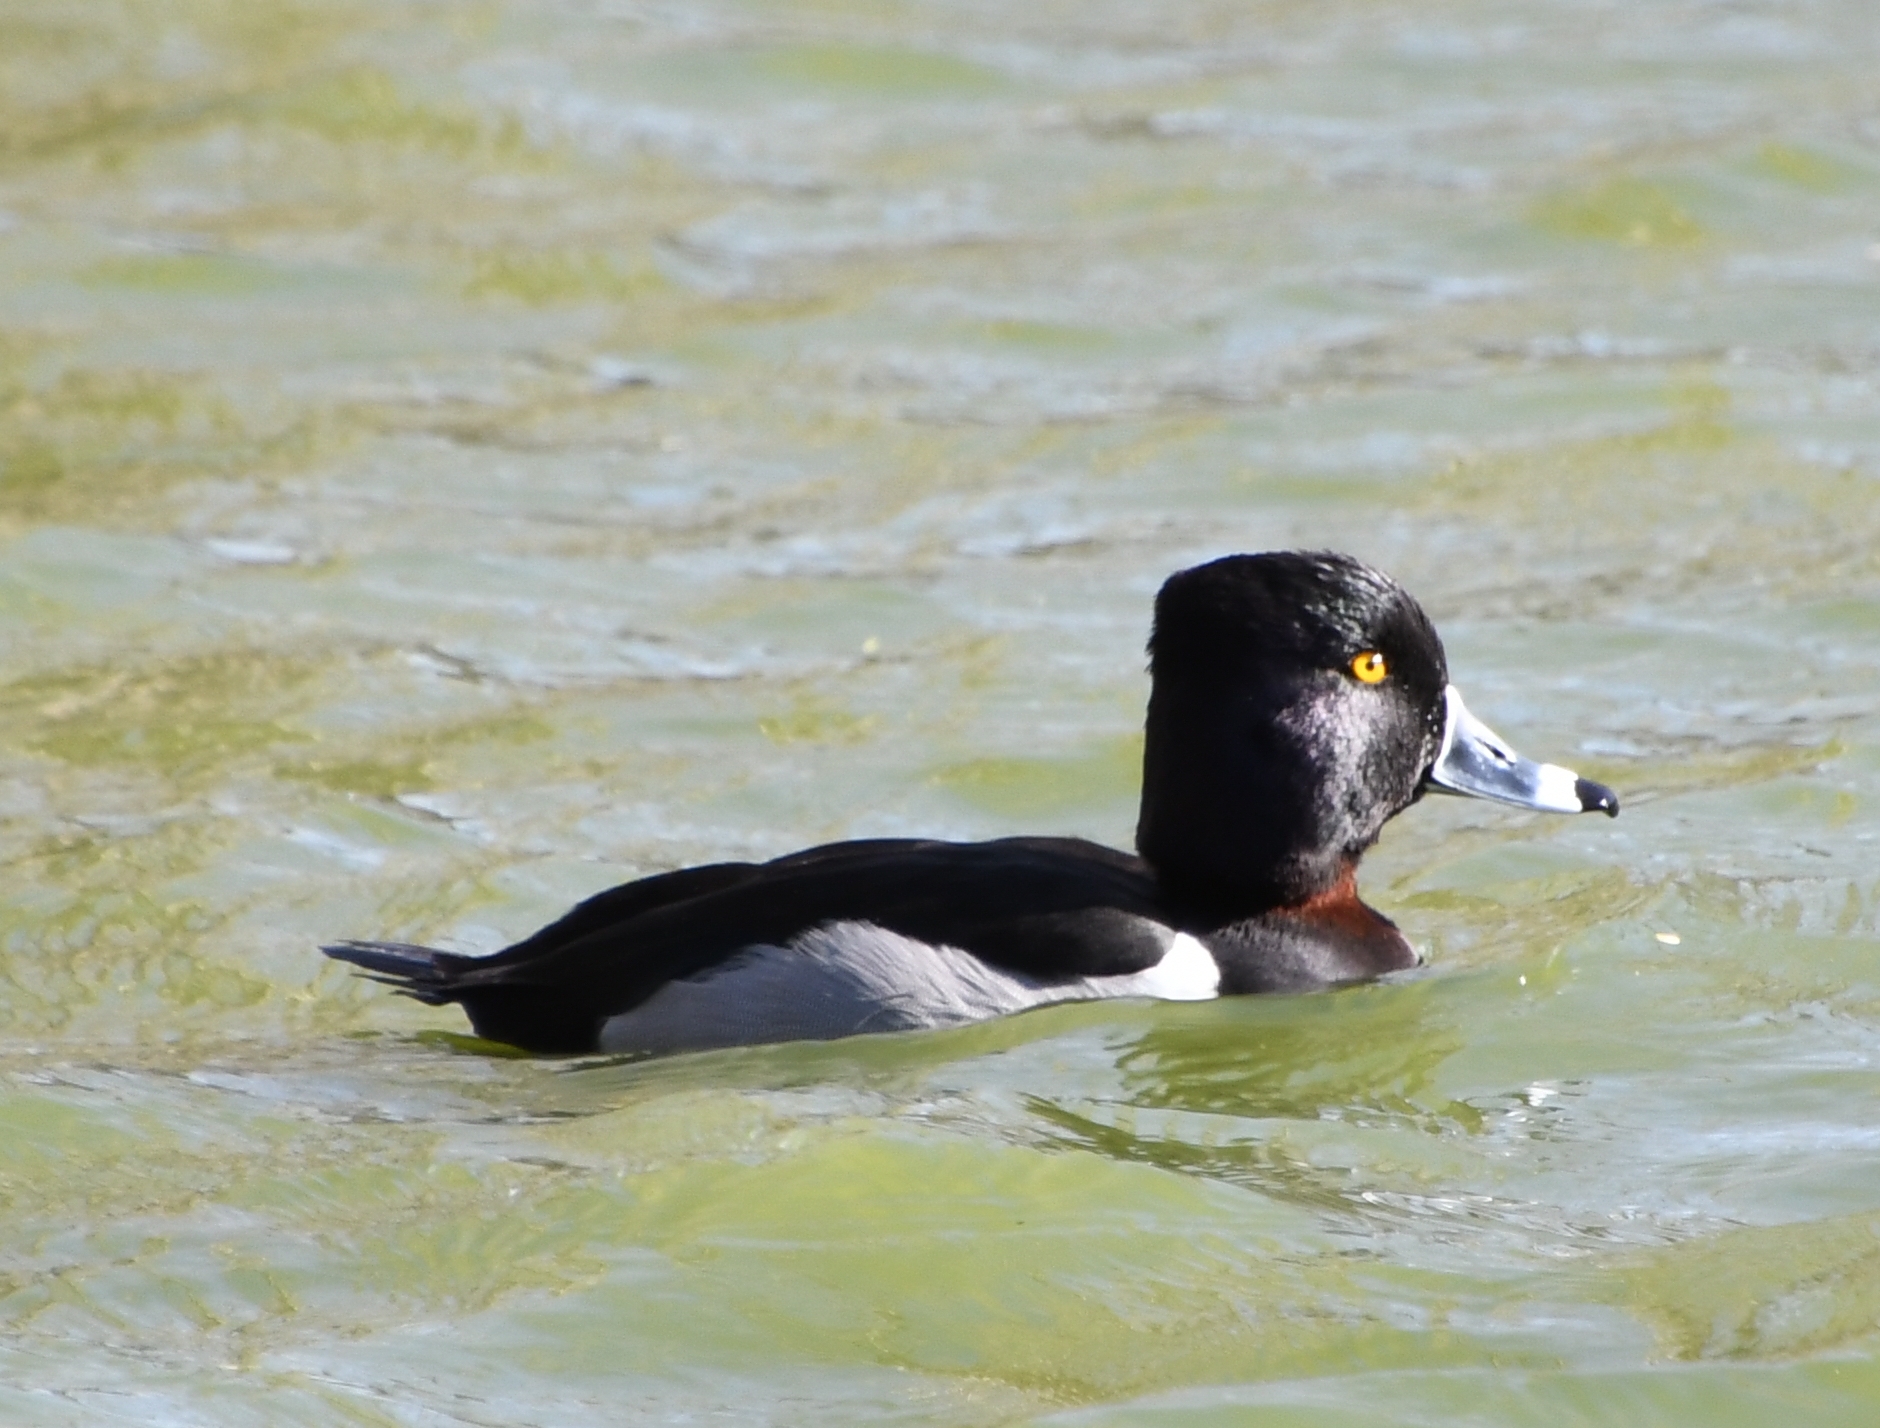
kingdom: Animalia
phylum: Chordata
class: Aves
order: Anseriformes
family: Anatidae
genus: Aythya
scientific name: Aythya collaris
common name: Ring-necked duck
